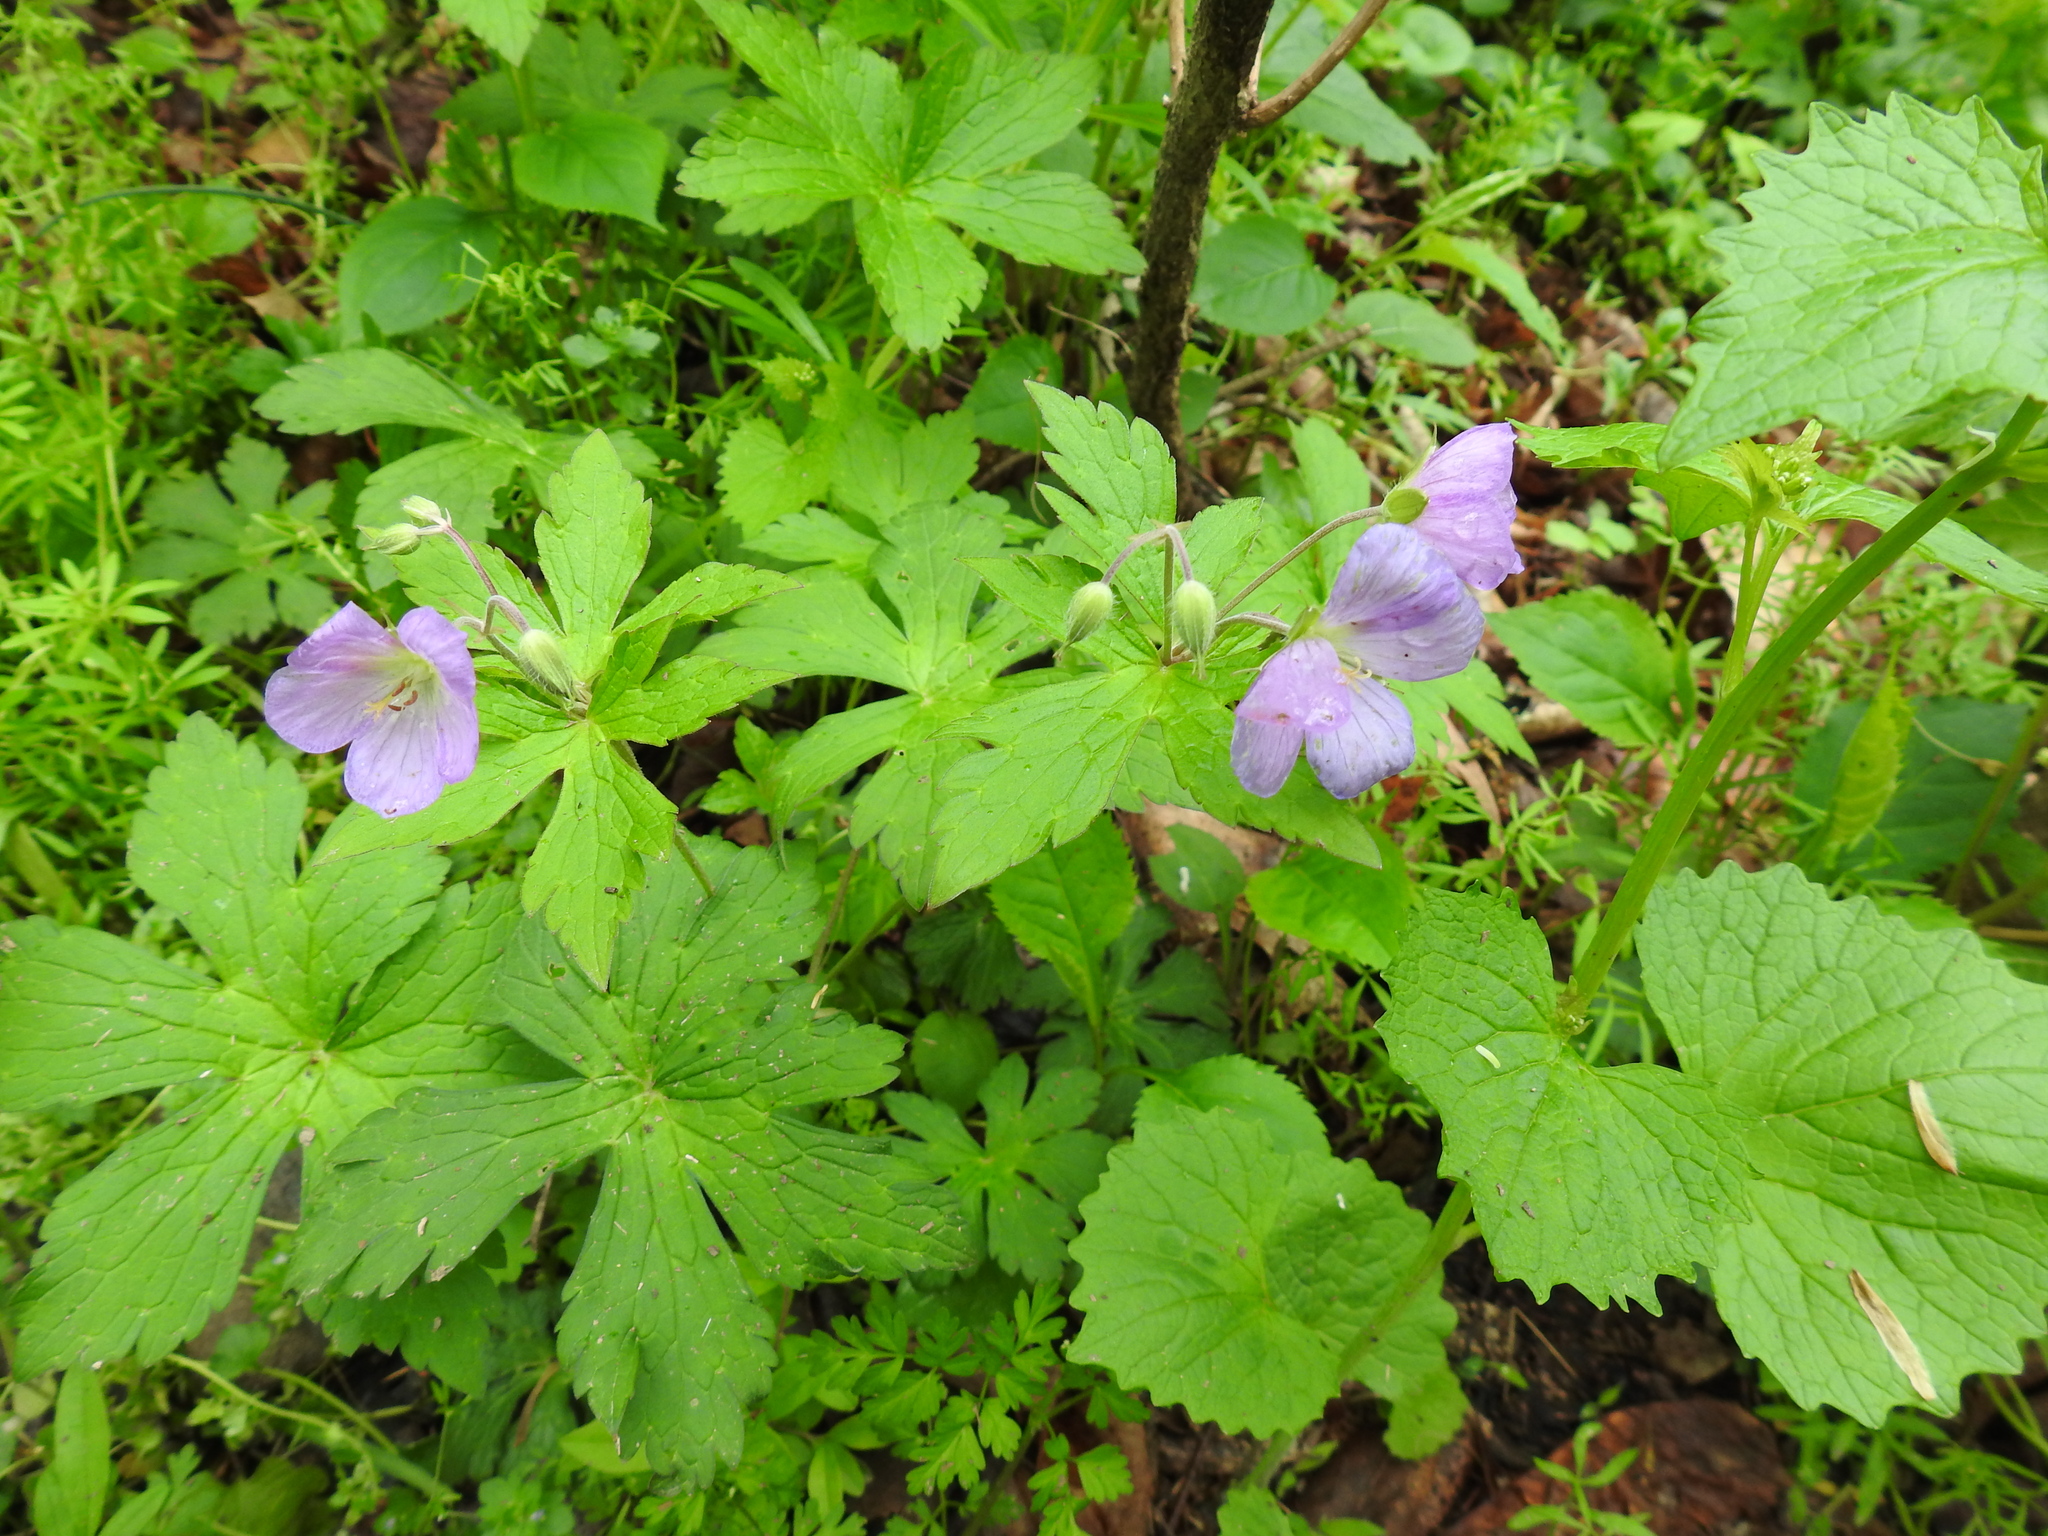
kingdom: Plantae
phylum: Tracheophyta
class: Magnoliopsida
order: Geraniales
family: Geraniaceae
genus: Geranium
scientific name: Geranium maculatum
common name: Spotted geranium
